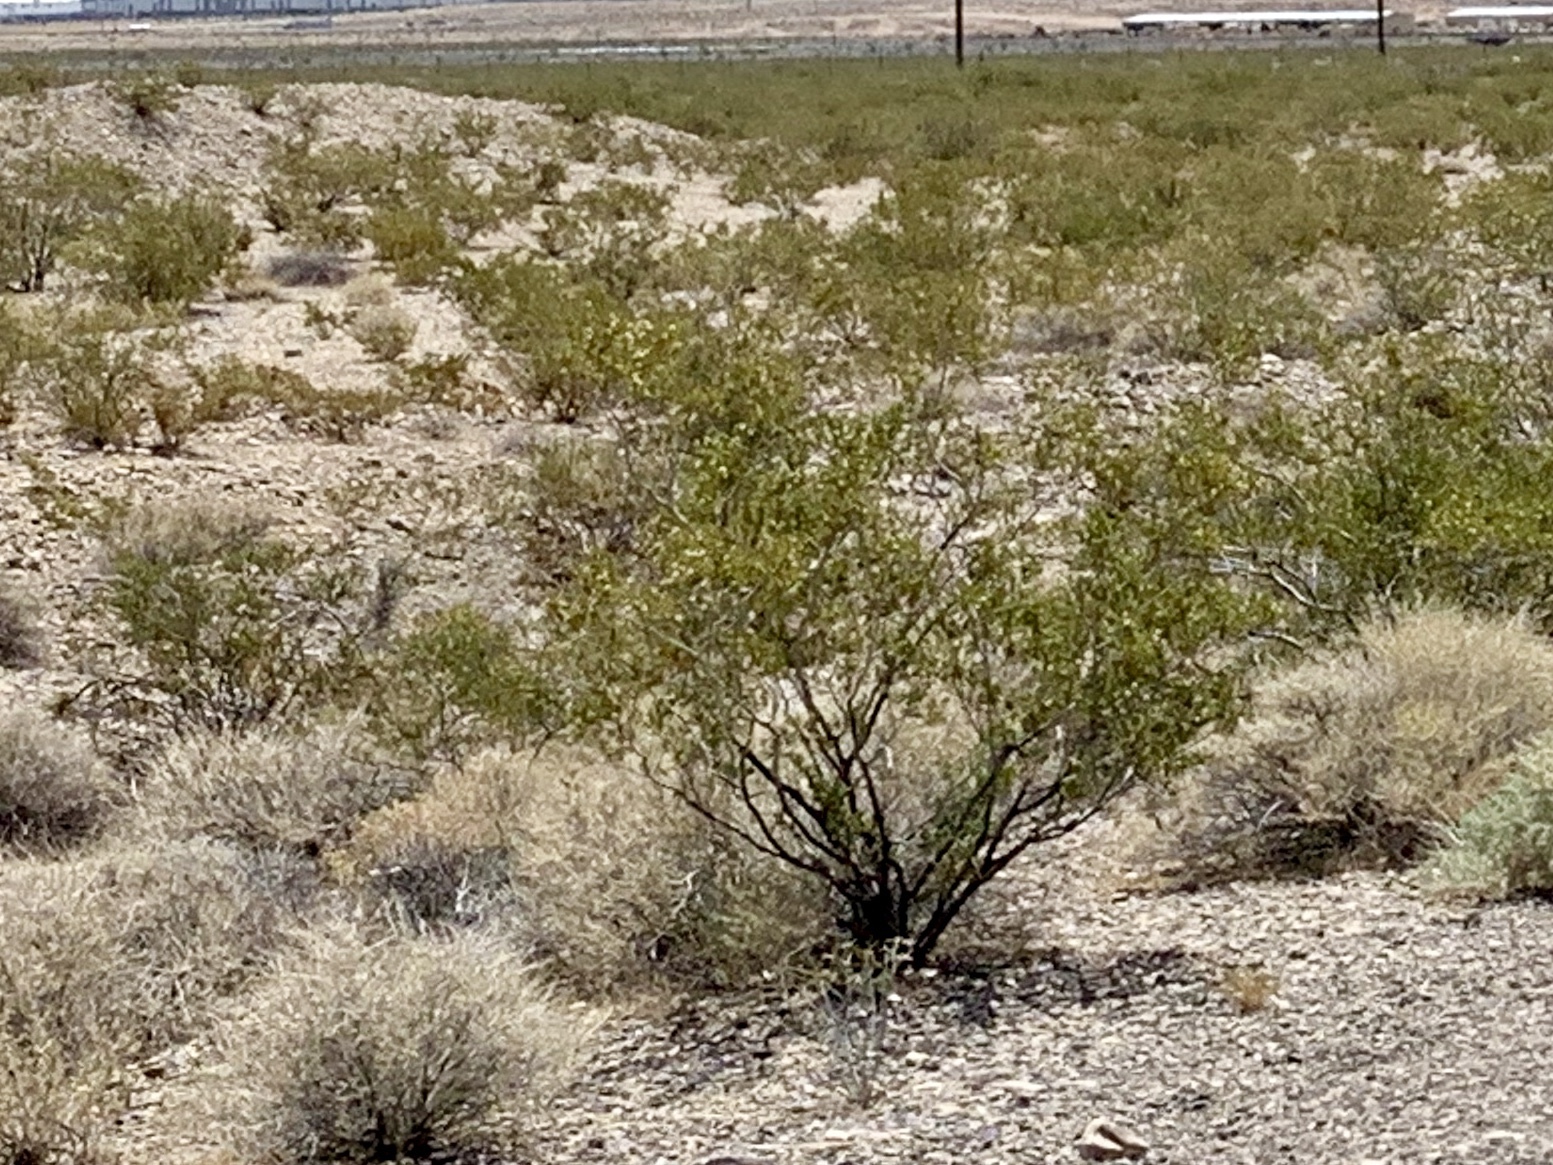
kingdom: Plantae
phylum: Tracheophyta
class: Magnoliopsida
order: Zygophyllales
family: Zygophyllaceae
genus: Larrea
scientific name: Larrea tridentata
